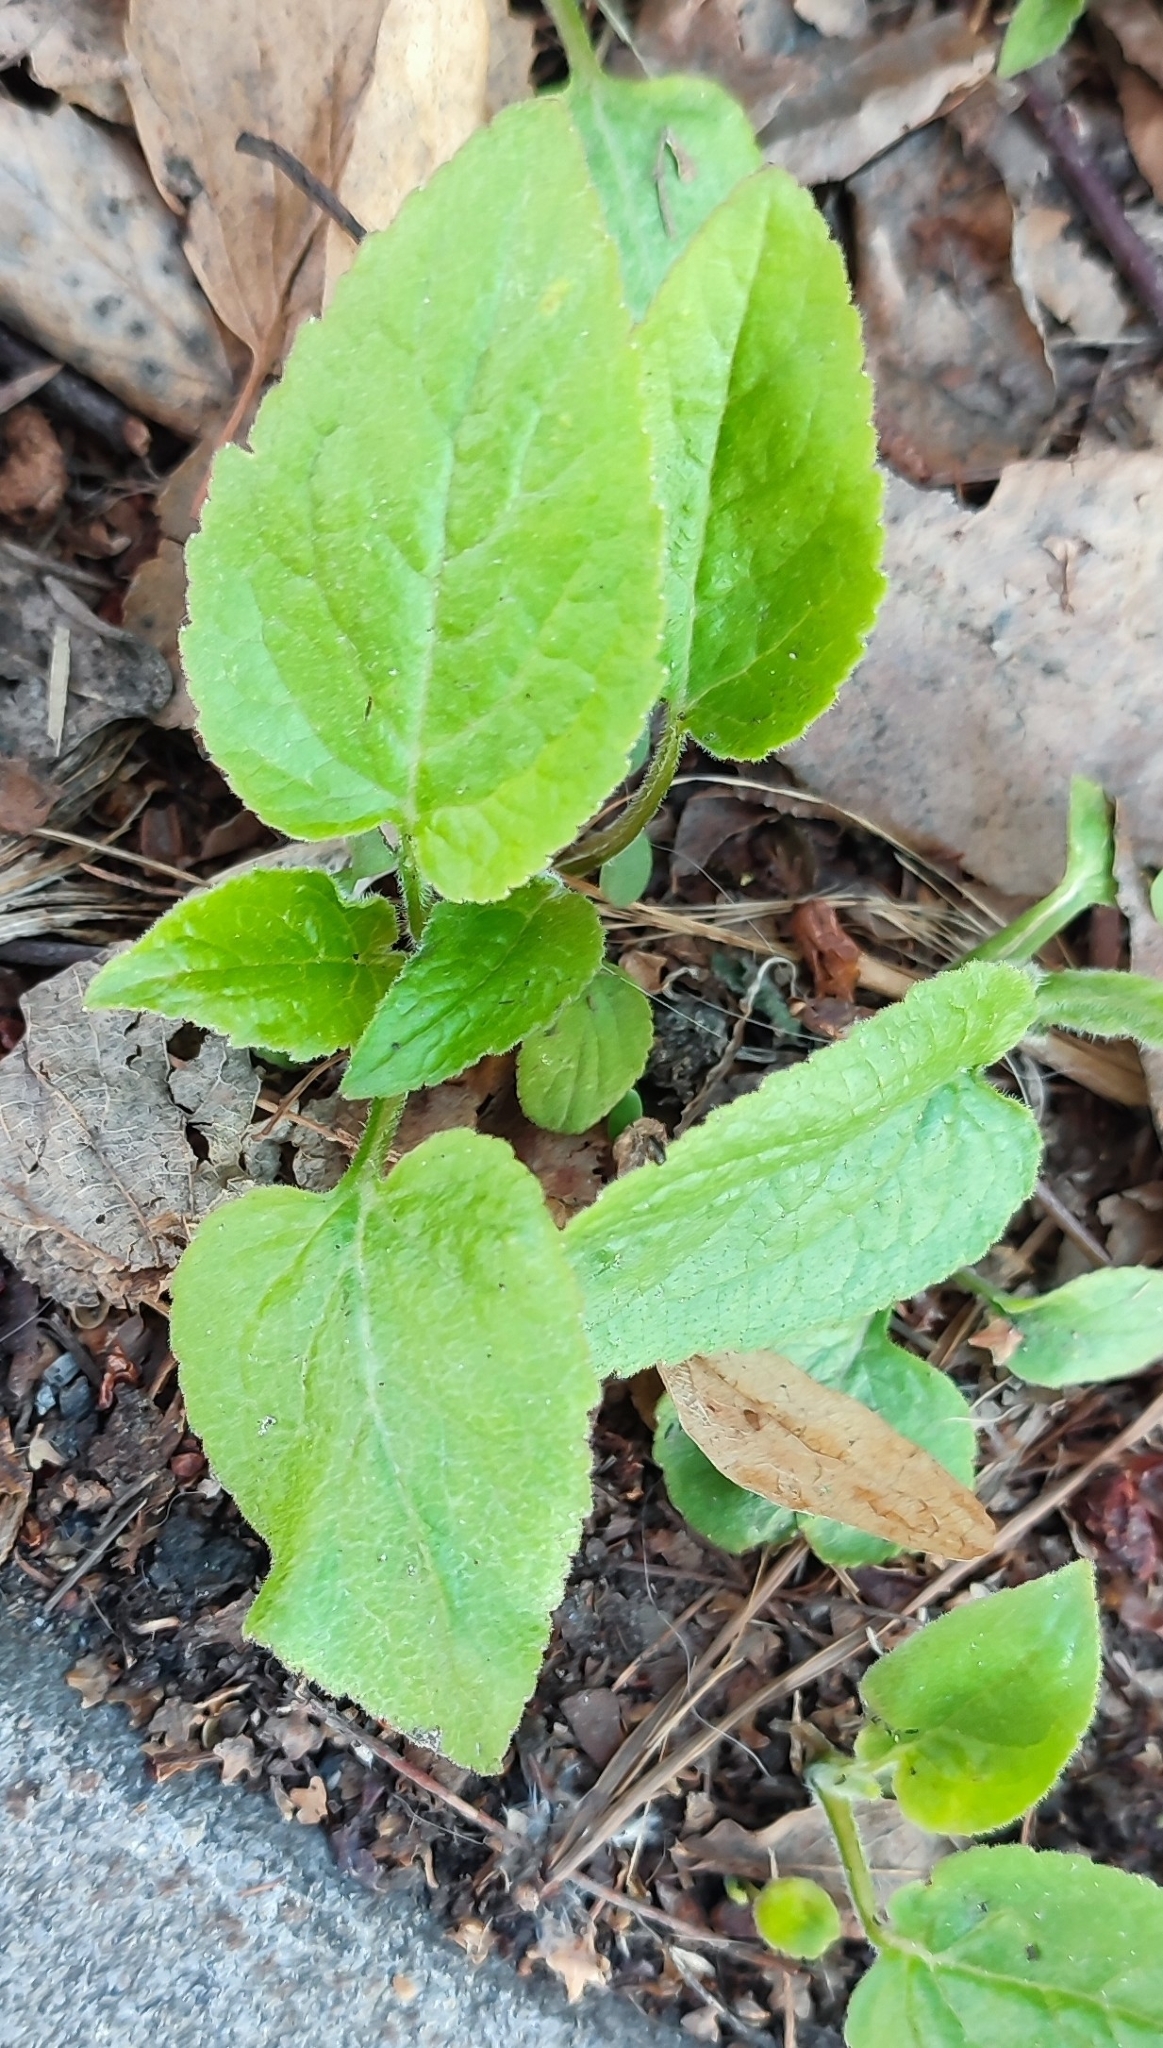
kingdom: Plantae
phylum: Tracheophyta
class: Magnoliopsida
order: Asterales
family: Campanulaceae
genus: Campanula
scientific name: Campanula latifolia
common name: Giant bellflower
